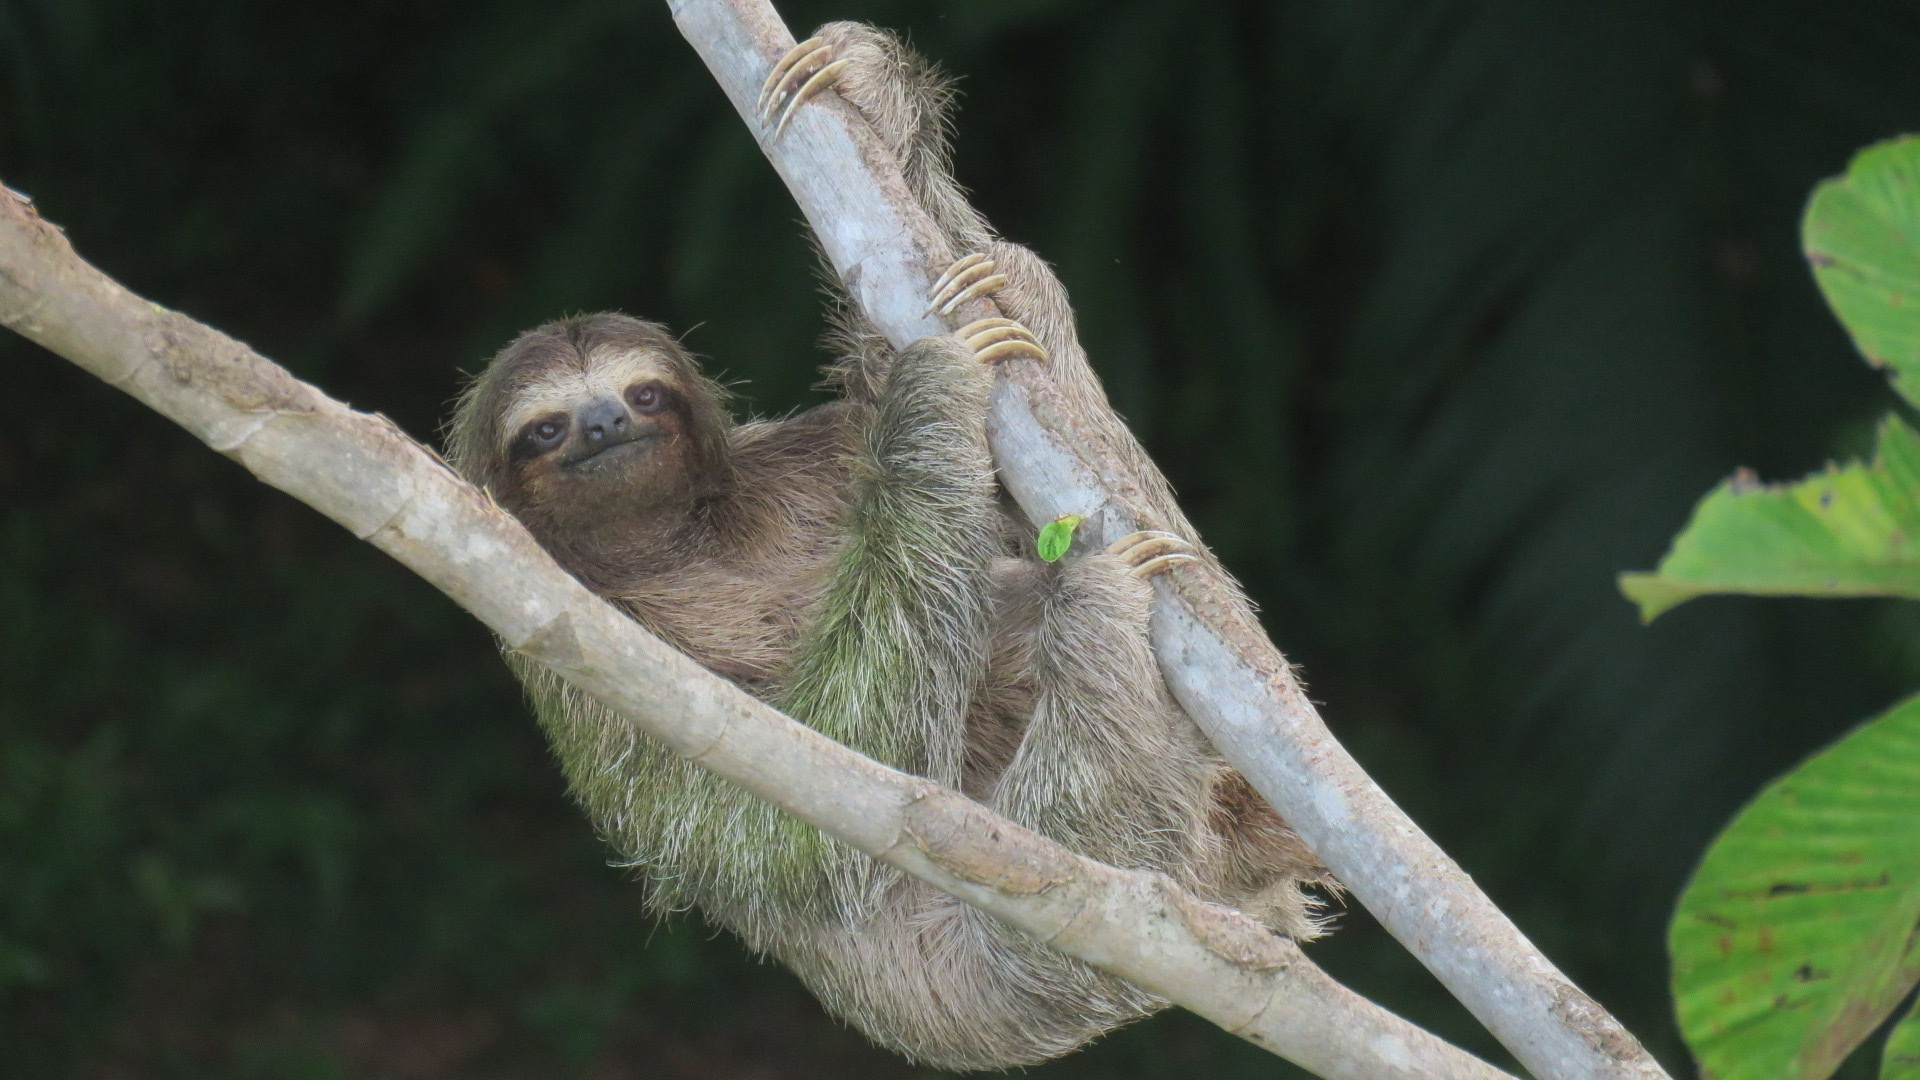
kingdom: Animalia
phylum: Chordata
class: Mammalia
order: Pilosa
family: Bradypodidae
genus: Bradypus
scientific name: Bradypus variegatus
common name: Brown-throated three-toed sloth
